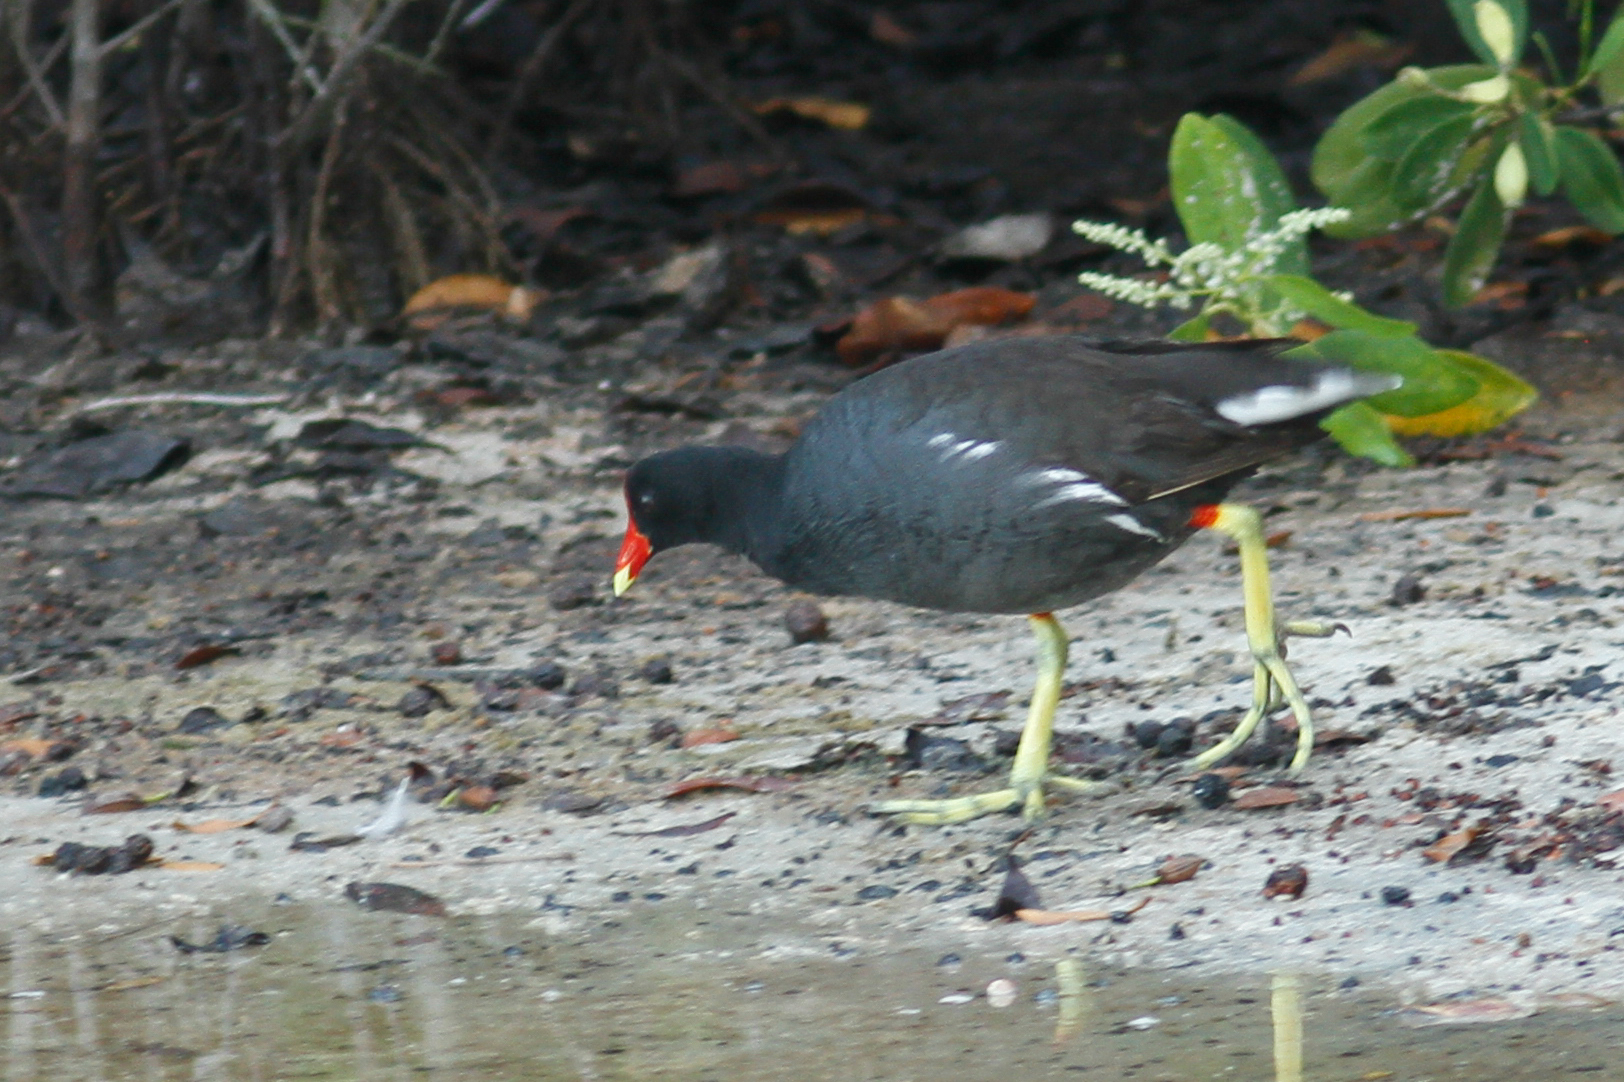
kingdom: Animalia
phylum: Chordata
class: Aves
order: Gruiformes
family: Rallidae
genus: Gallinula
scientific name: Gallinula chloropus
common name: Common moorhen
